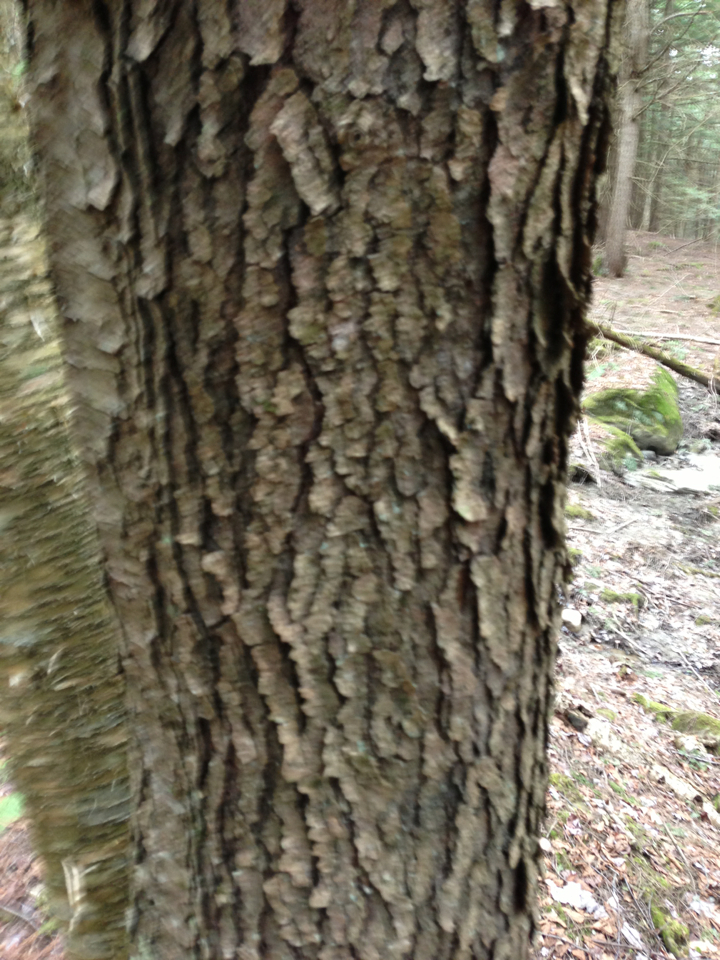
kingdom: Plantae
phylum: Tracheophyta
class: Magnoliopsida
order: Rosales
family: Rosaceae
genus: Prunus
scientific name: Prunus serotina
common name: Black cherry
